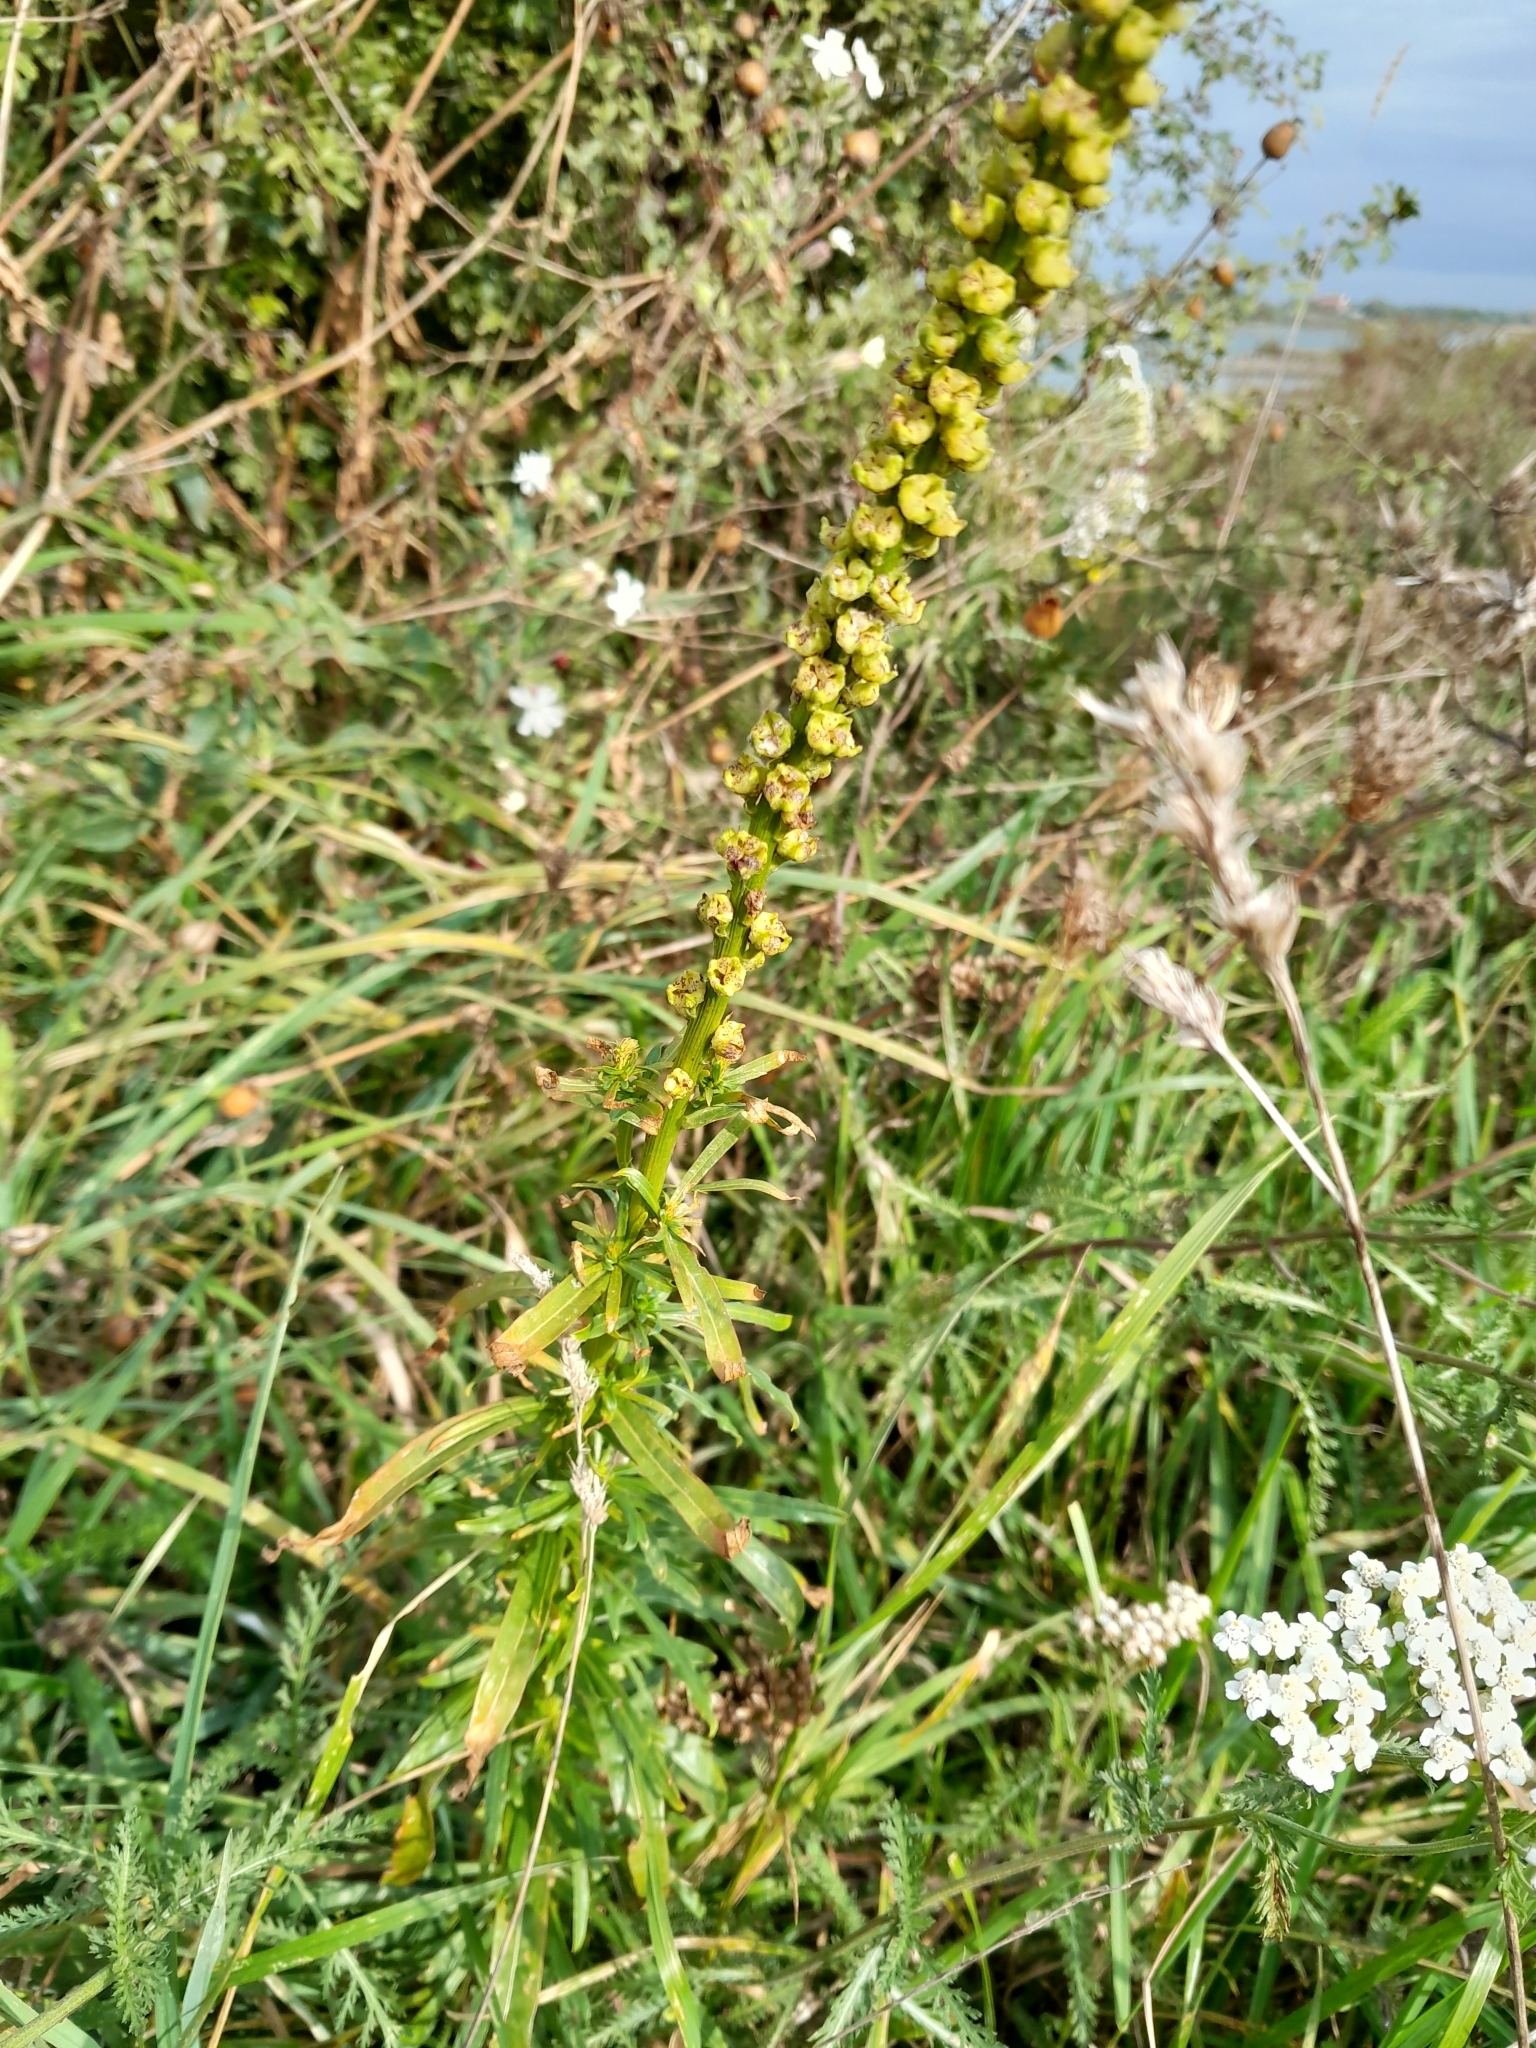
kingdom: Plantae
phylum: Tracheophyta
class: Magnoliopsida
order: Brassicales
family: Resedaceae
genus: Reseda
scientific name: Reseda luteola
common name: Weld
